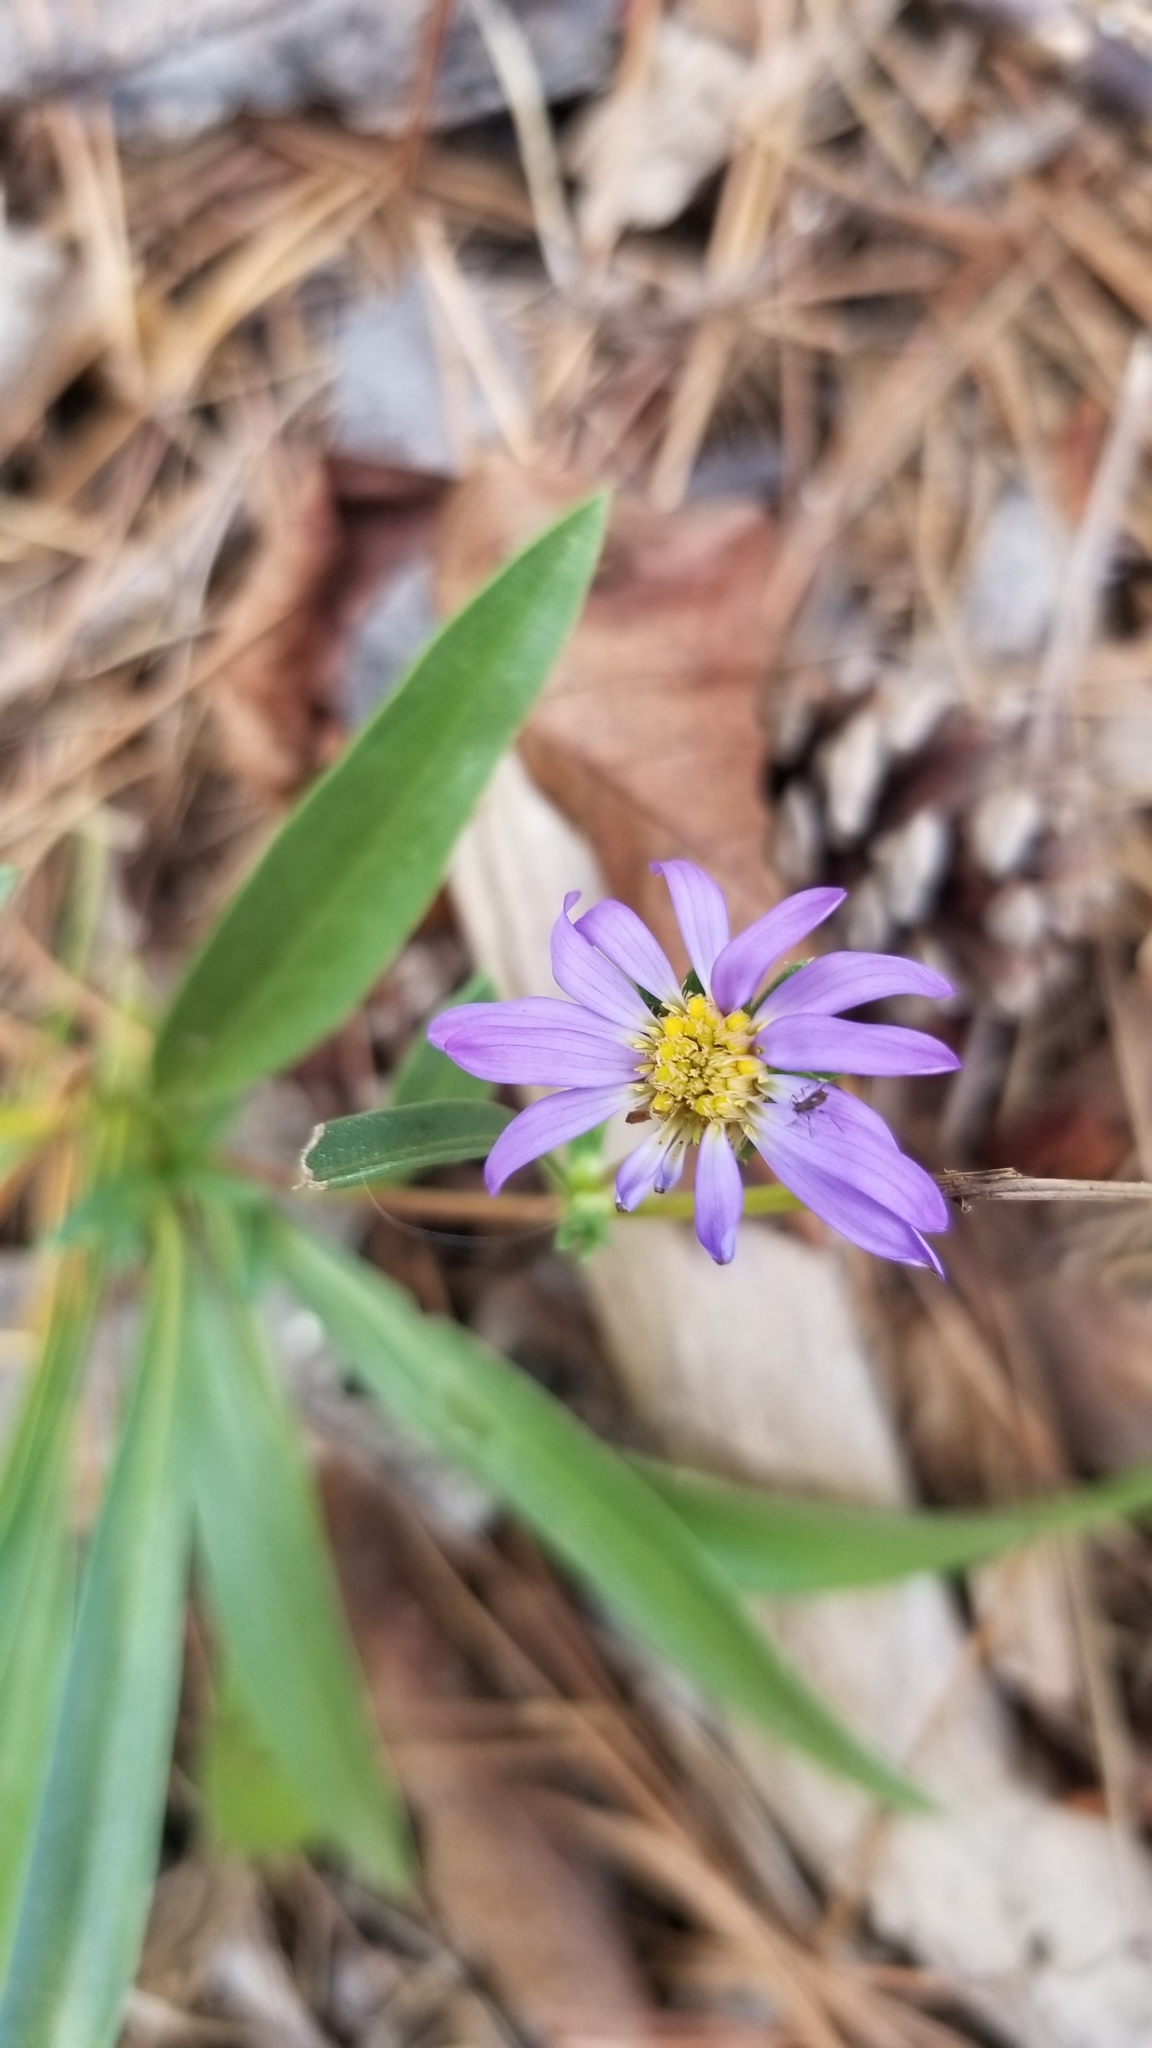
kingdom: Plantae
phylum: Tracheophyta
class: Magnoliopsida
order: Asterales
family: Asteraceae
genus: Eurybia
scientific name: Eurybia hemispherica
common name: Showy aster
